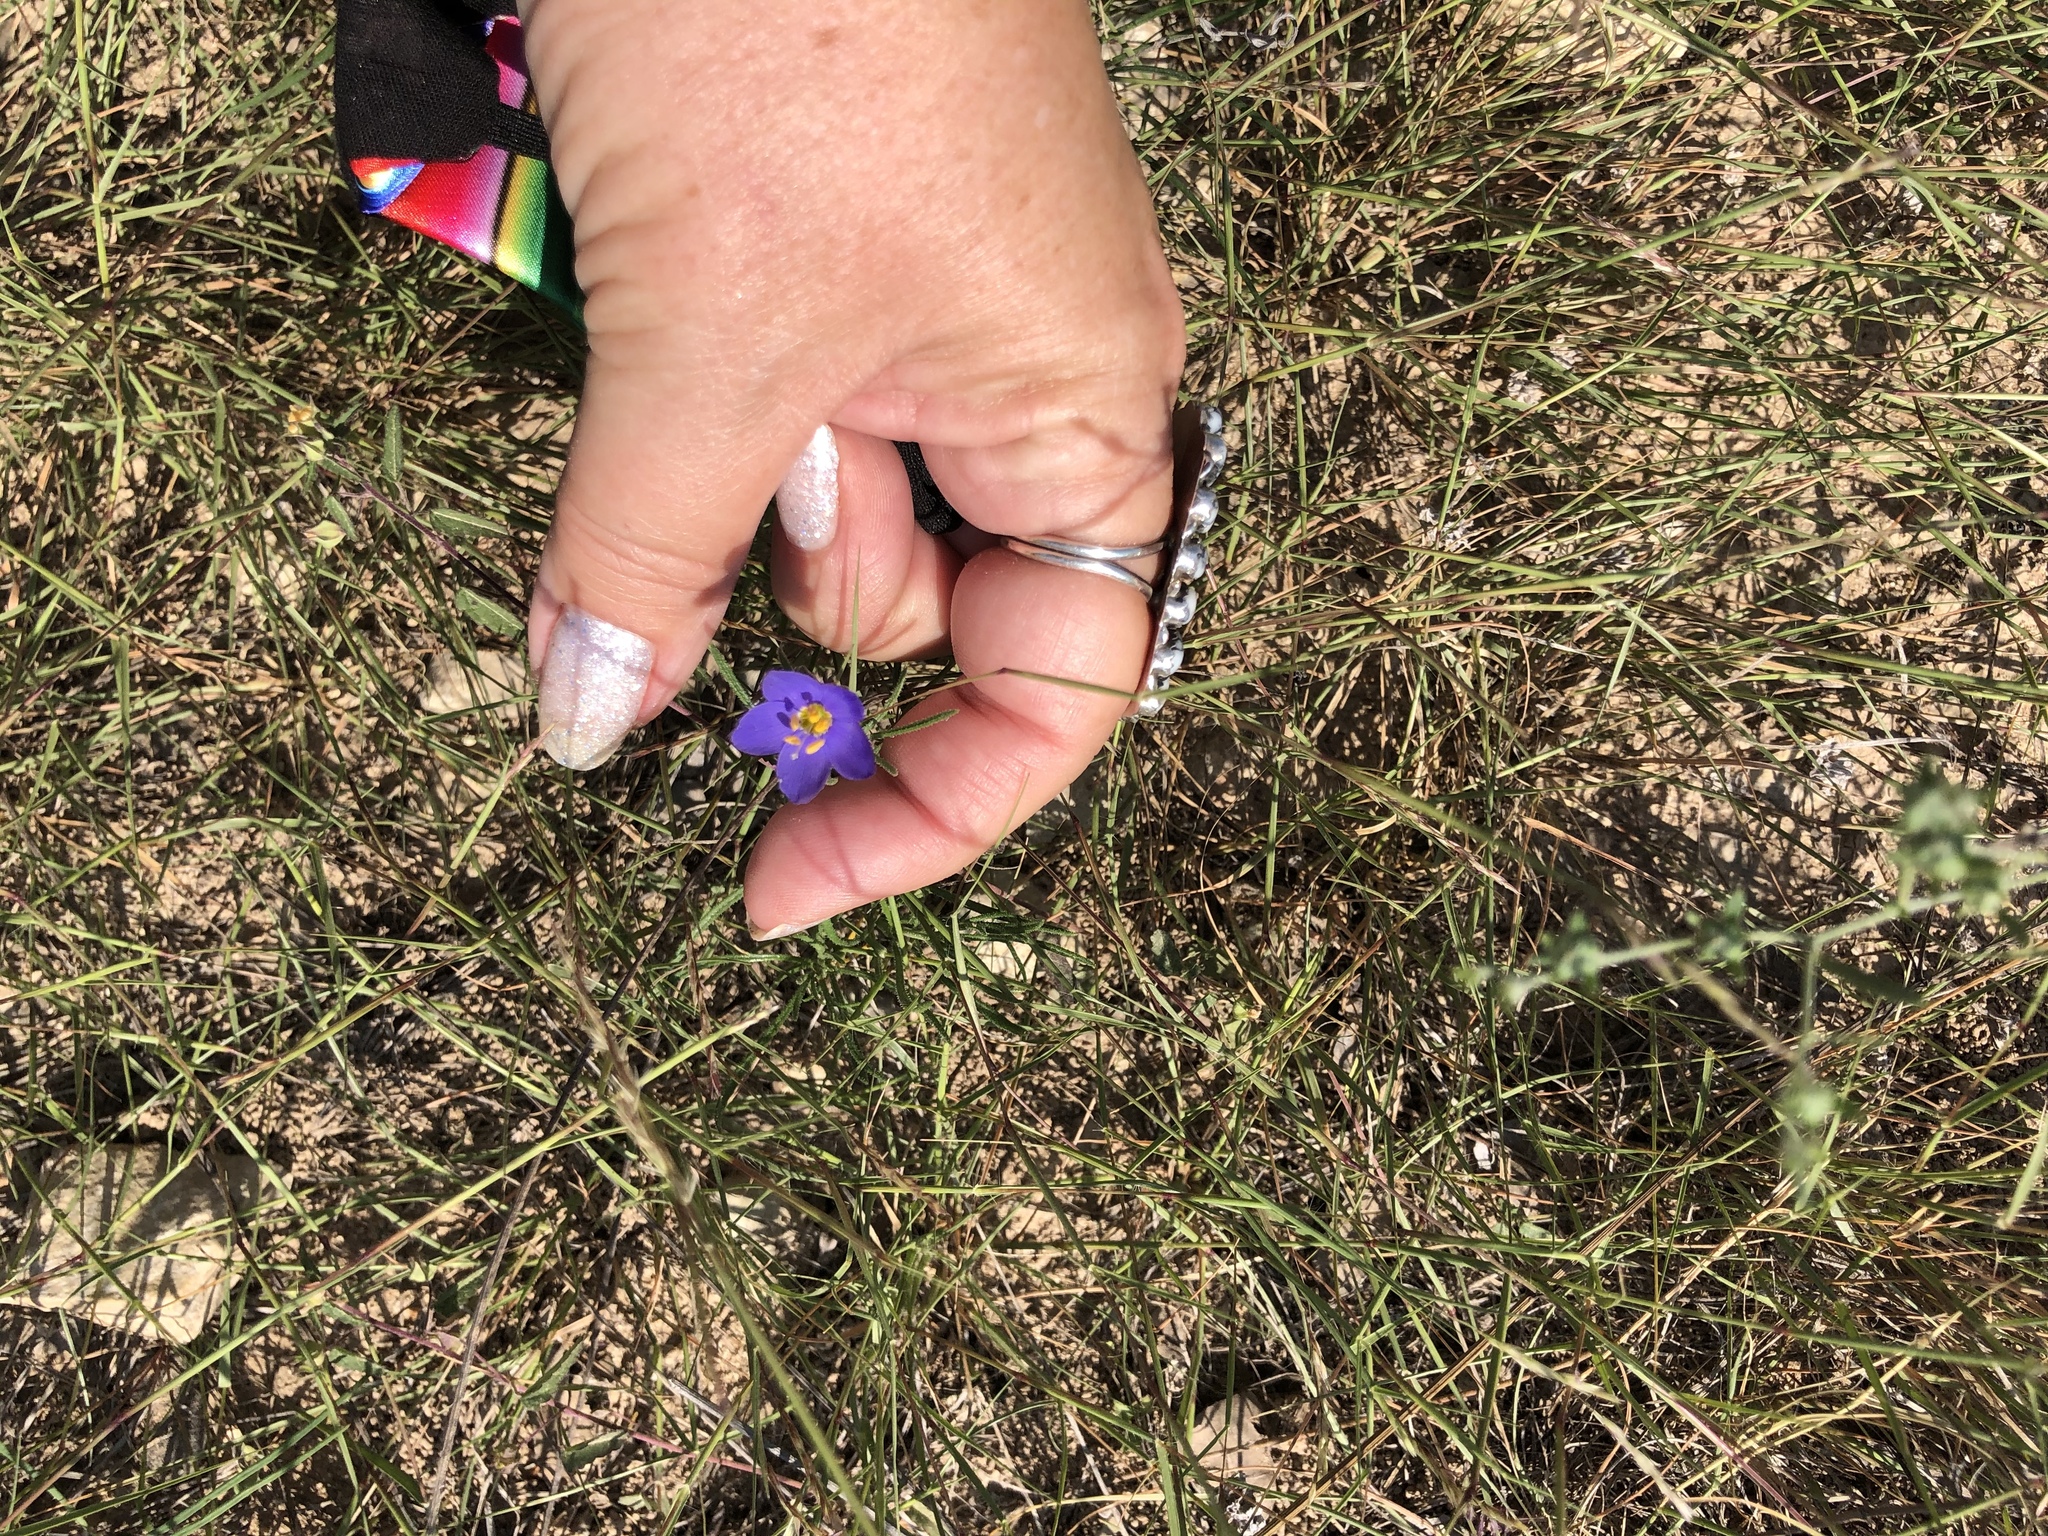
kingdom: Plantae
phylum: Tracheophyta
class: Magnoliopsida
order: Ericales
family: Polemoniaceae
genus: Giliastrum
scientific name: Giliastrum rigidulum
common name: Bluebowls
